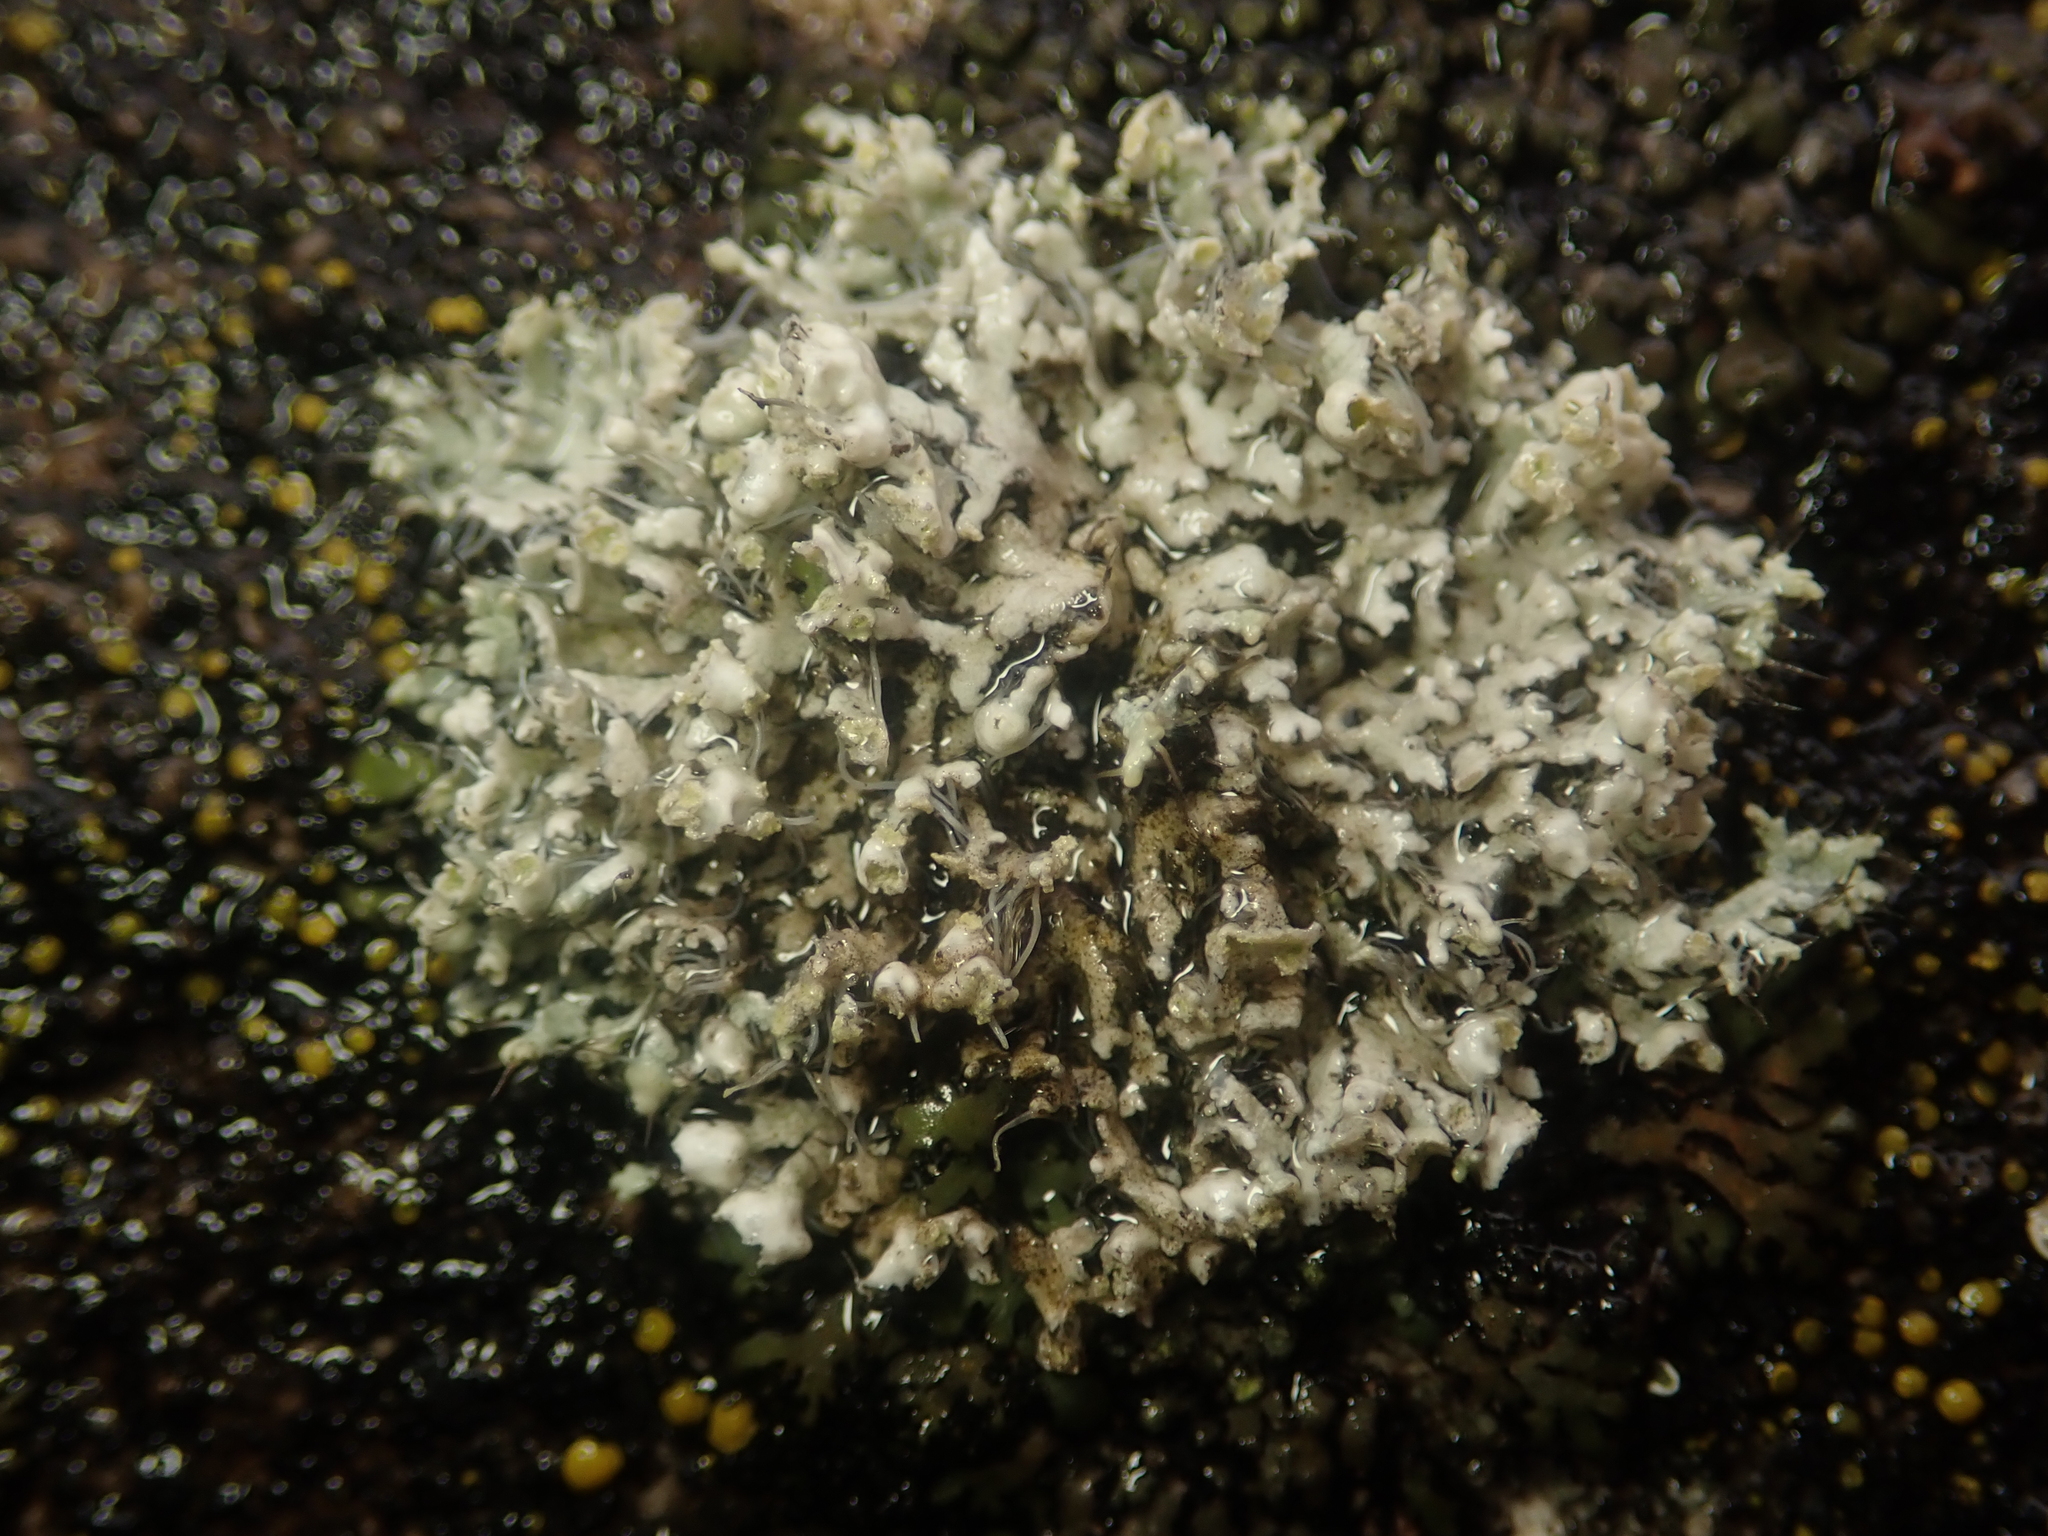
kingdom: Fungi
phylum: Ascomycota
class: Lecanoromycetes
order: Caliciales
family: Physciaceae
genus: Physcia
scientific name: Physcia adscendens
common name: Hooded rosette lichen
